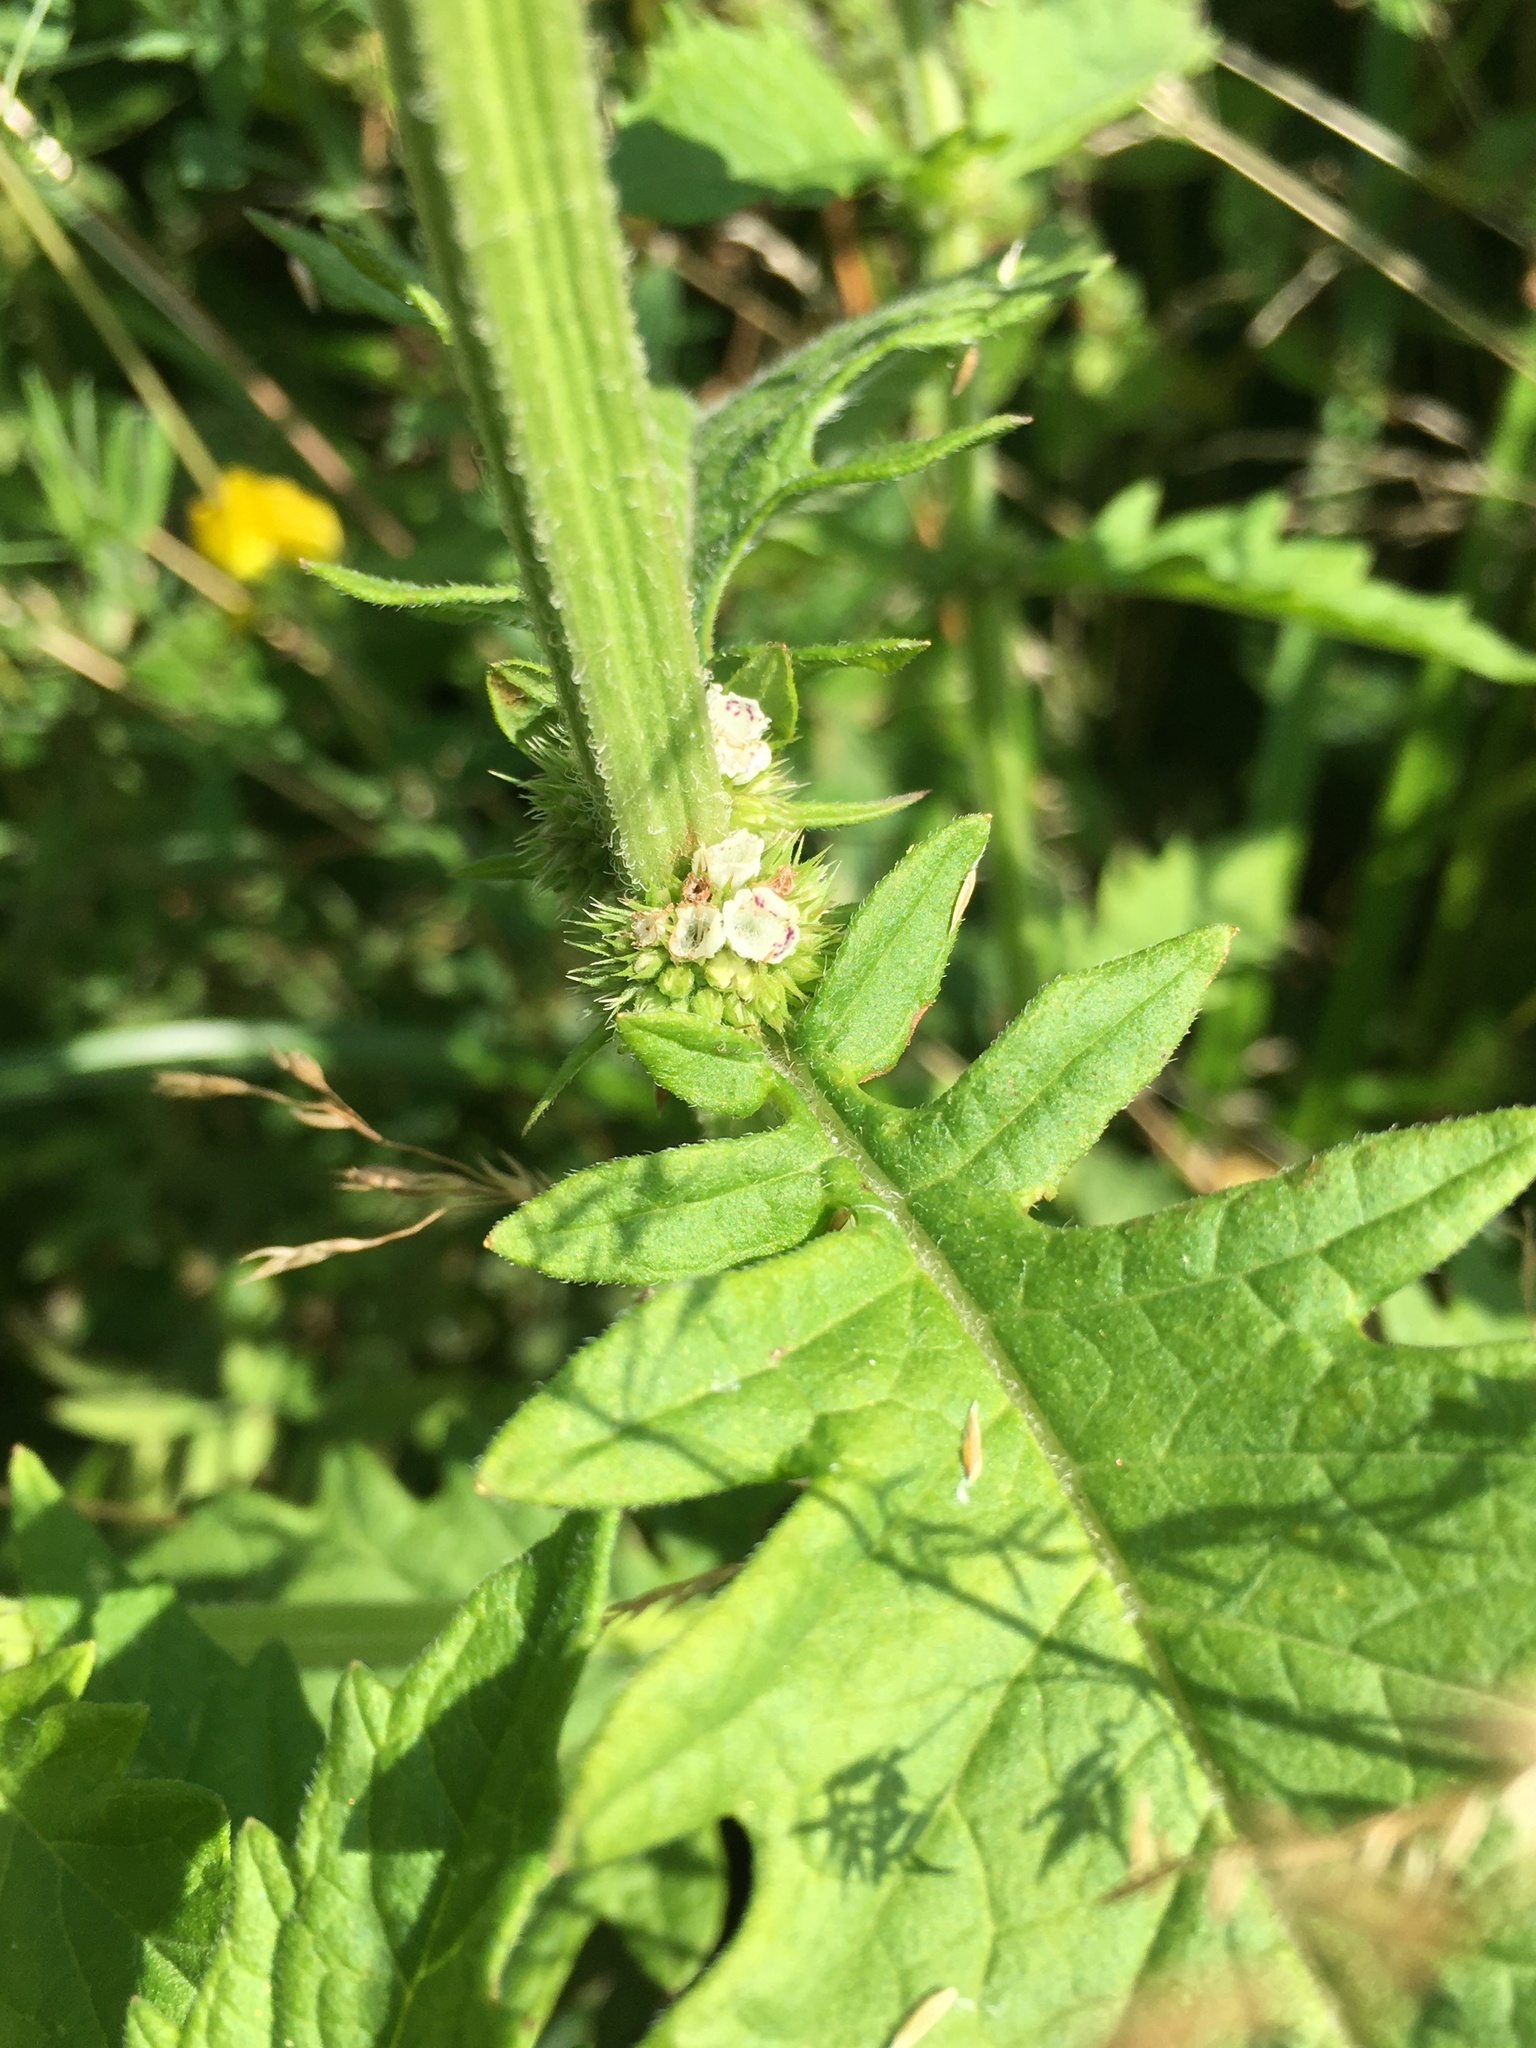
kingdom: Plantae
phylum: Tracheophyta
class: Magnoliopsida
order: Lamiales
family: Lamiaceae
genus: Lycopus
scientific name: Lycopus europaeus
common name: European bugleweed
